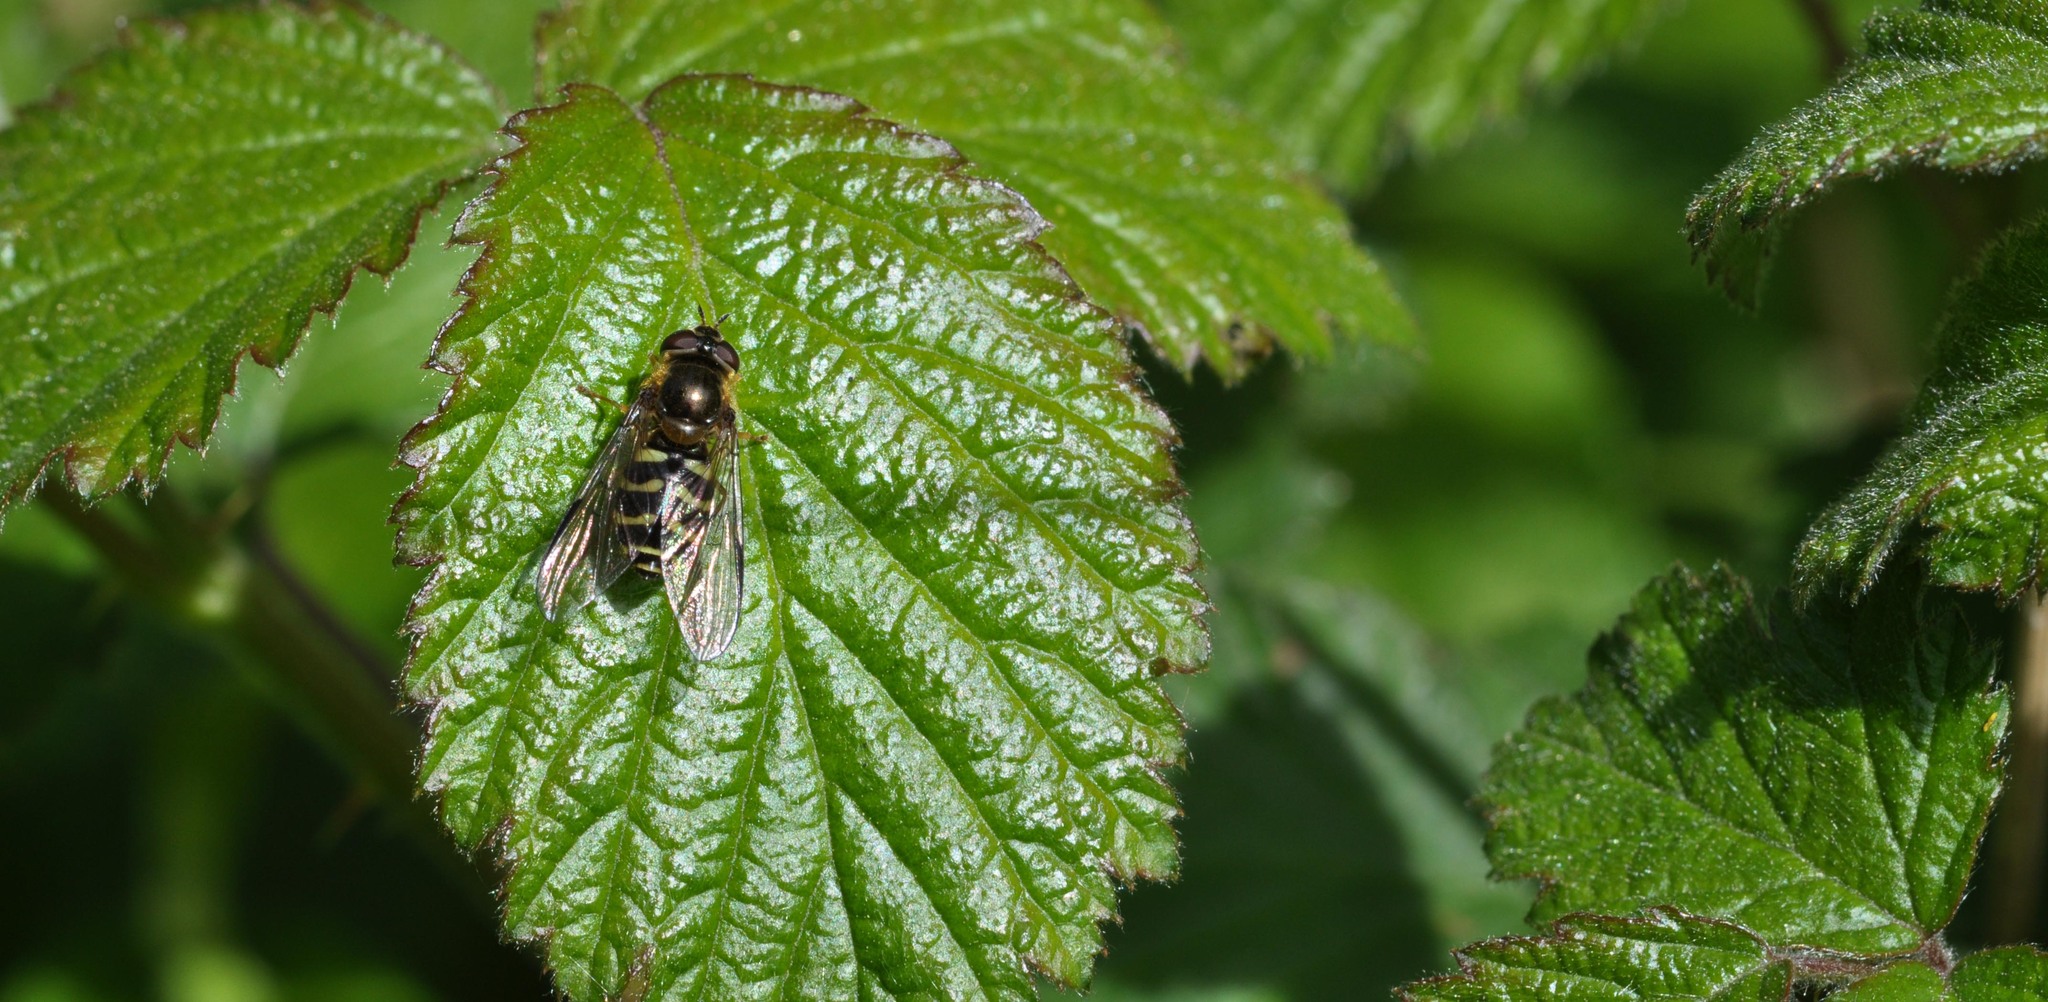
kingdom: Animalia
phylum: Arthropoda
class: Insecta
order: Diptera
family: Syrphidae
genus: Dasysyrphus
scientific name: Dasysyrphus
